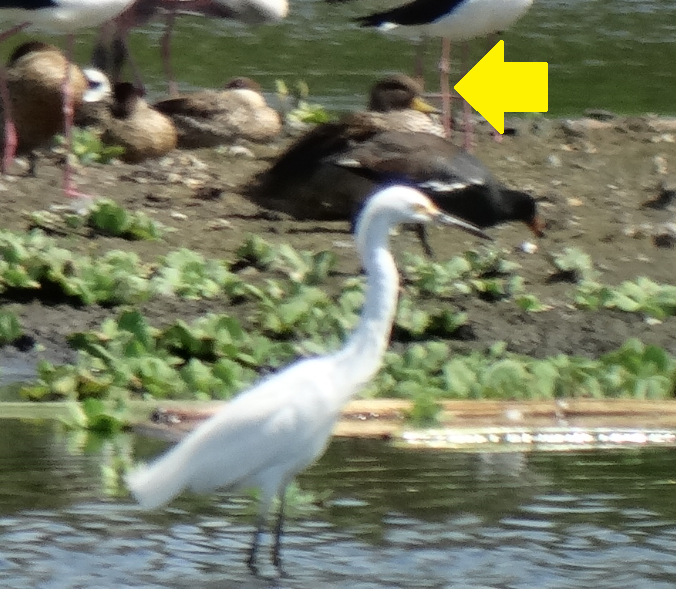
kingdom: Animalia
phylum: Chordata
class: Aves
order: Anseriformes
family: Anatidae
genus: Anas
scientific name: Anas flavirostris
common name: Yellow-billed teal
